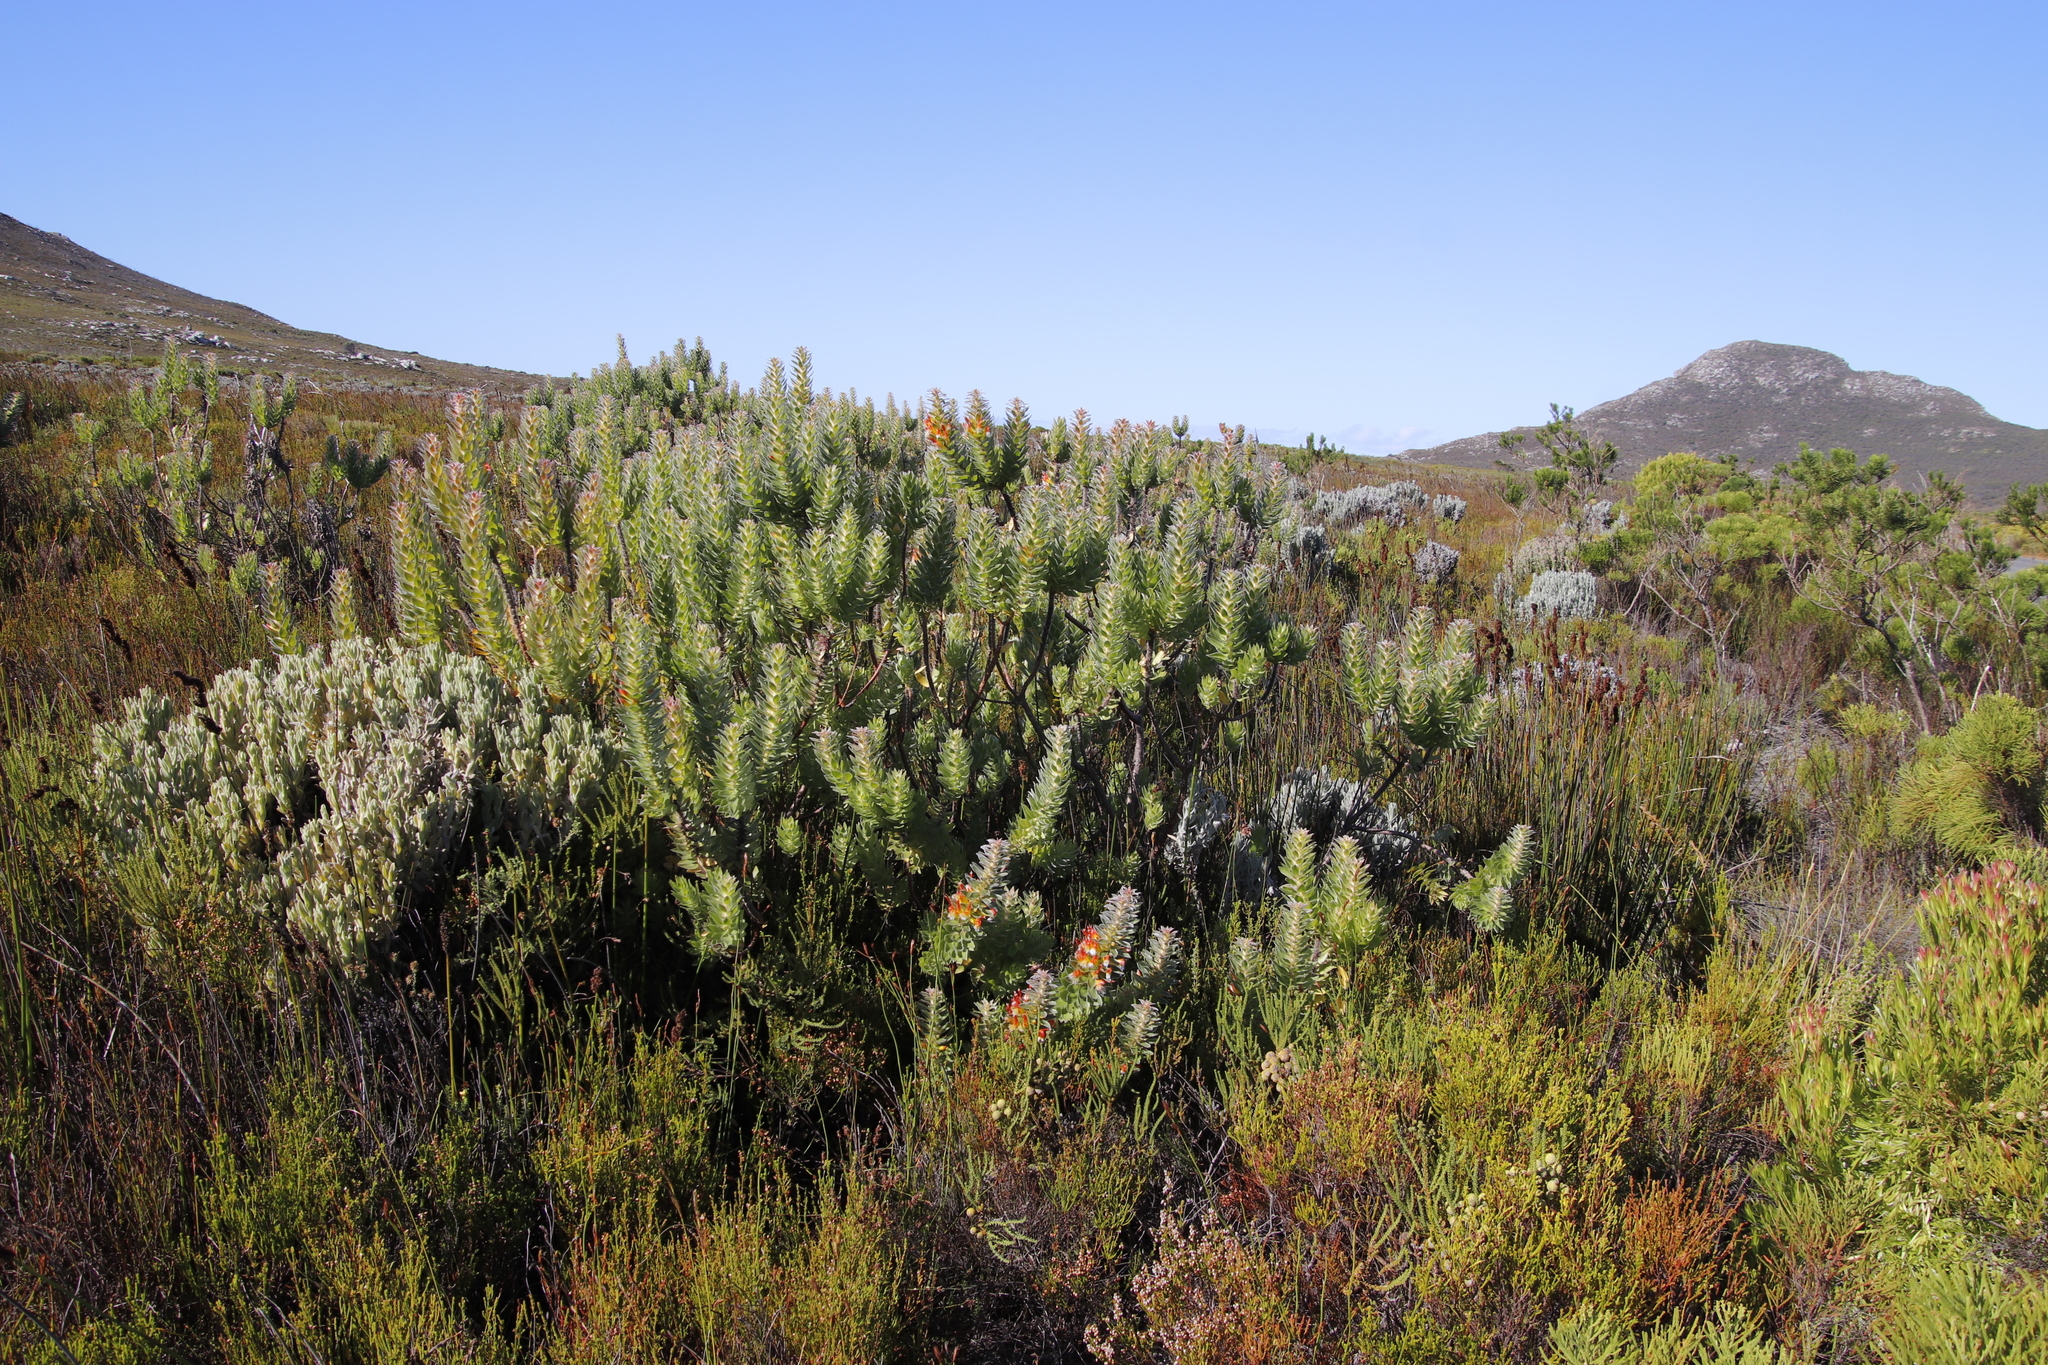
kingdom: Plantae
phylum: Tracheophyta
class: Magnoliopsida
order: Proteales
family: Proteaceae
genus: Mimetes
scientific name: Mimetes hirtus
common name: Marsh pagoda
